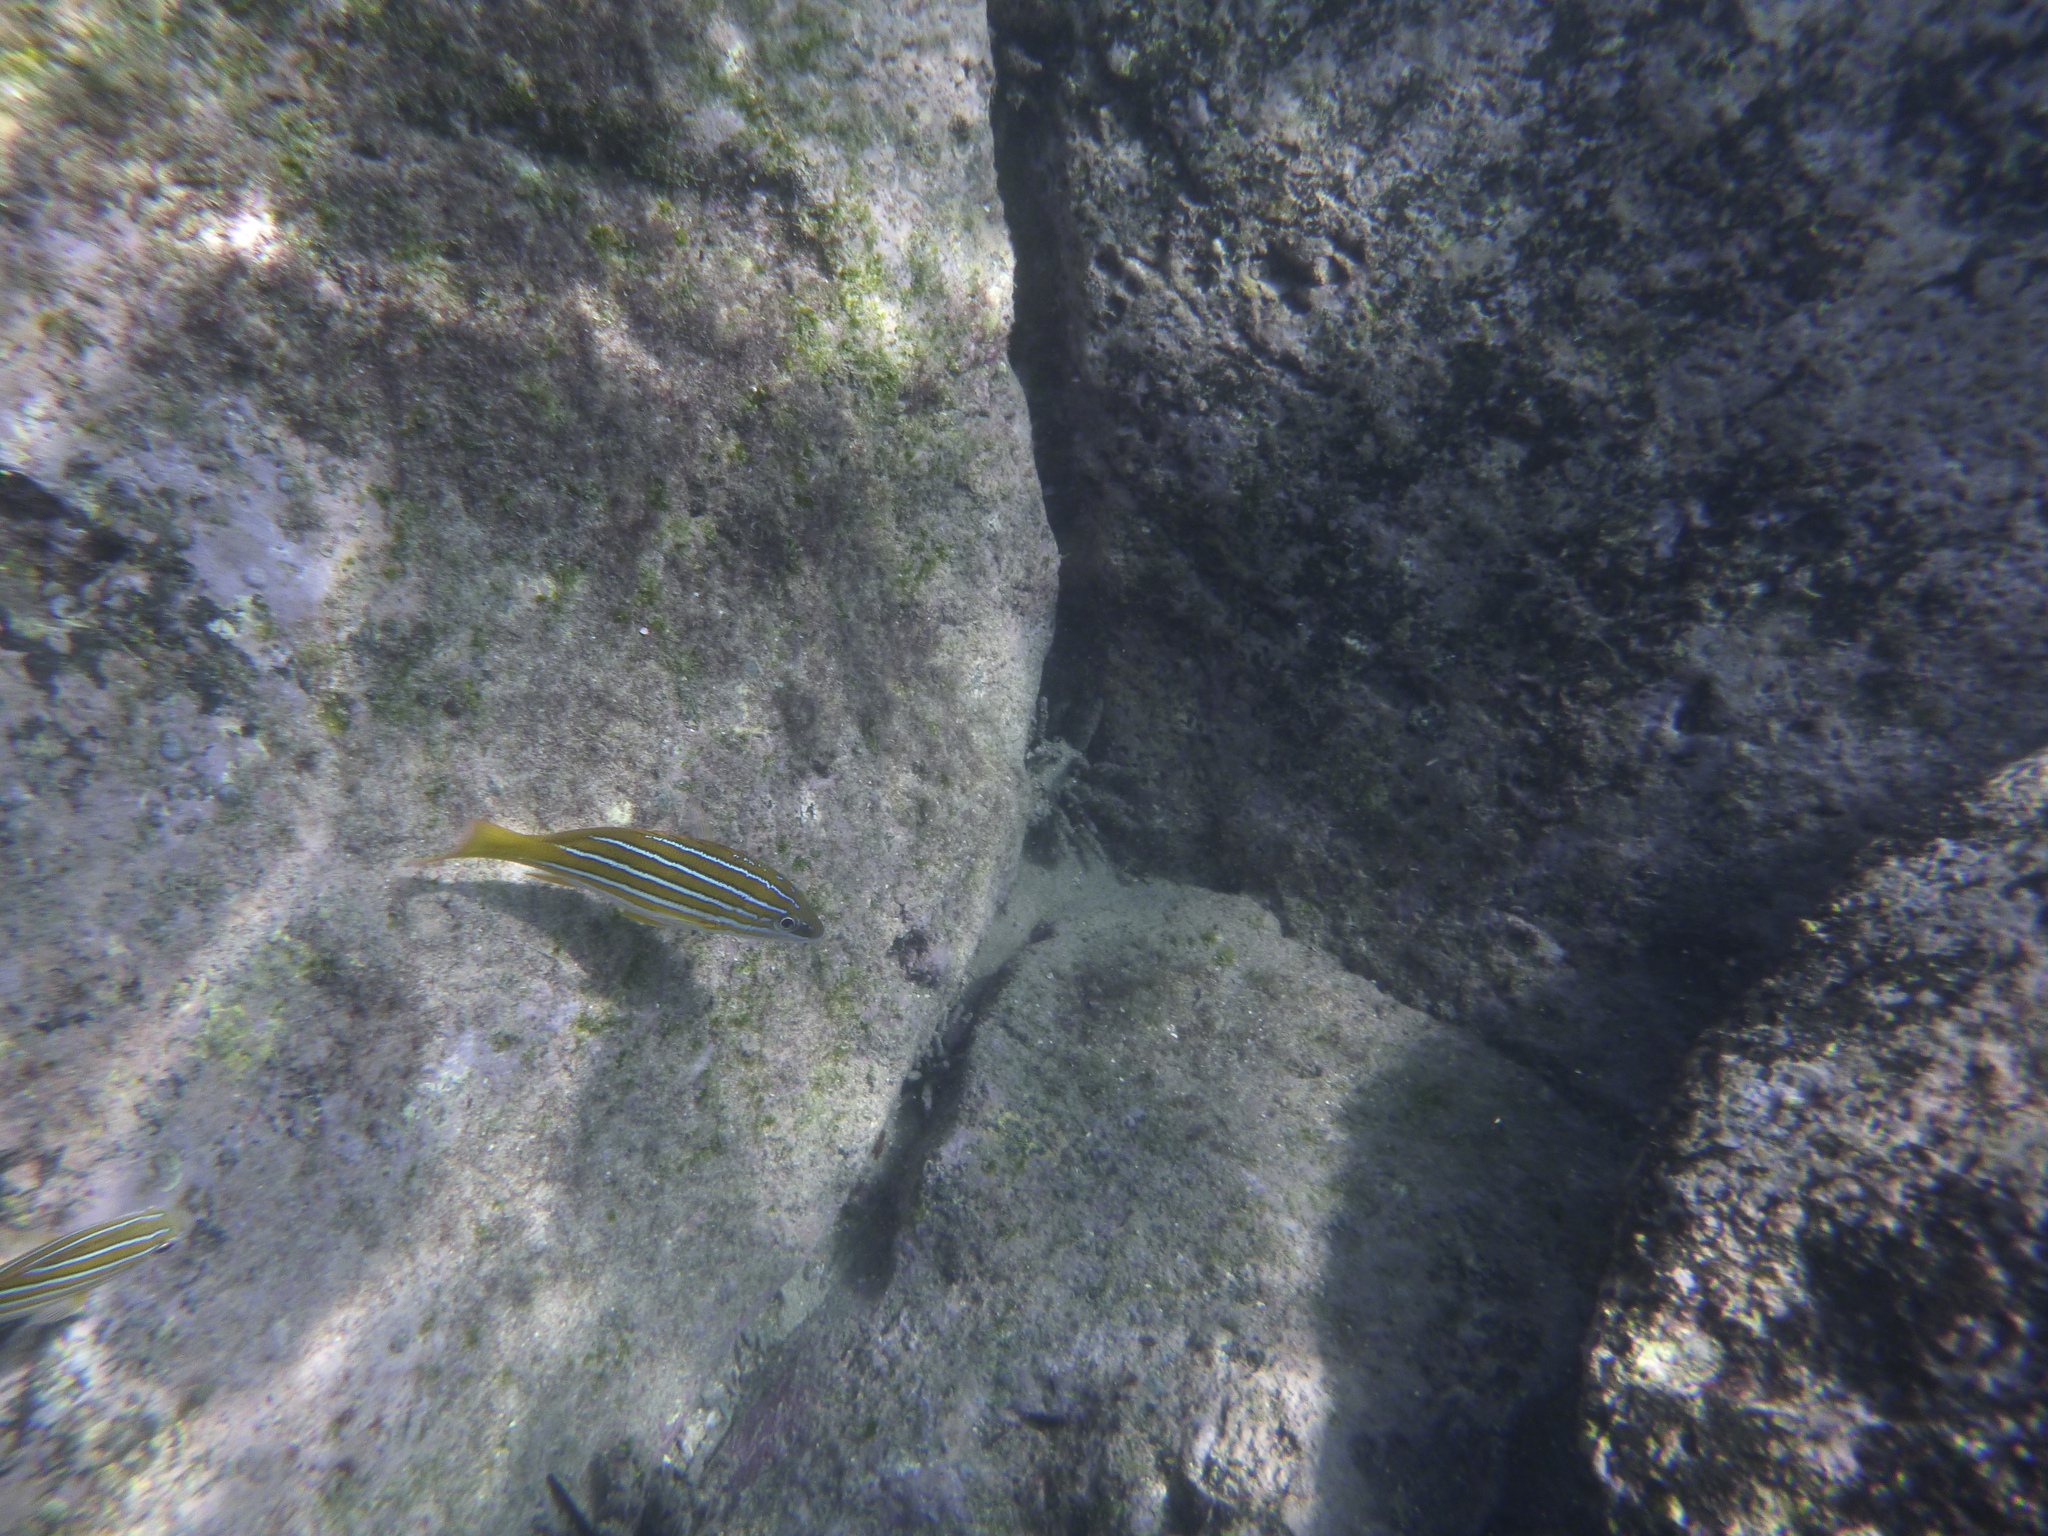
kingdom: Animalia
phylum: Chordata
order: Perciformes
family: Lutjanidae
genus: Lutjanus
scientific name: Lutjanus viridis
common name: Blue and gold snapper
